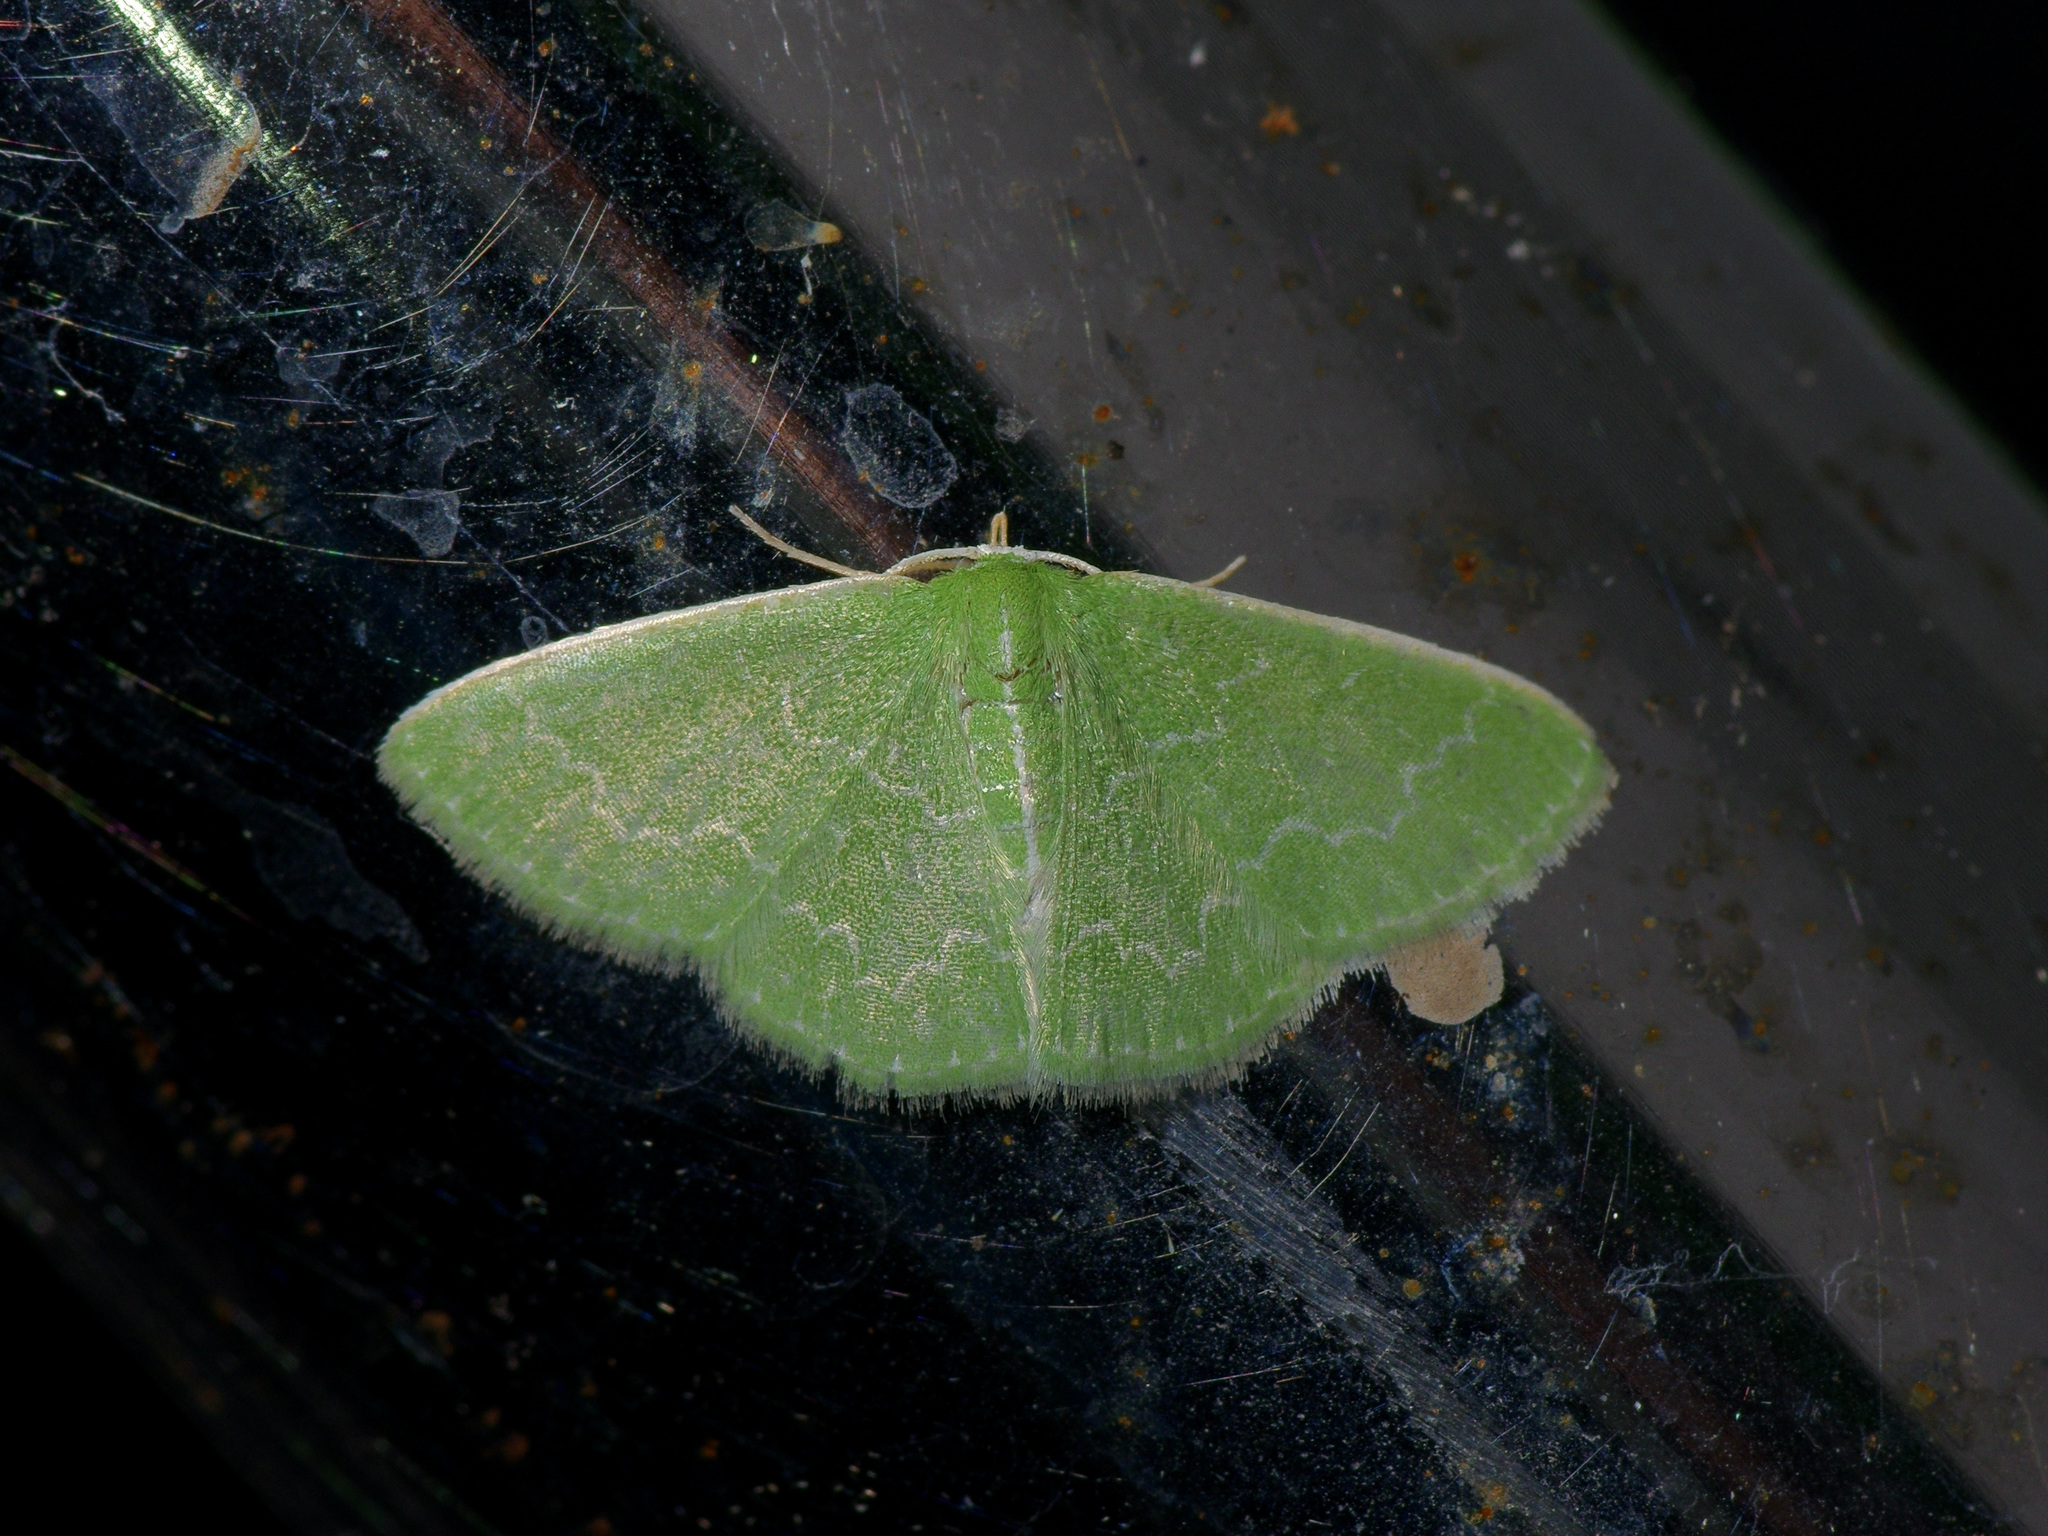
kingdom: Animalia
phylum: Arthropoda
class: Insecta
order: Lepidoptera
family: Geometridae
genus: Synchlora
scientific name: Synchlora frondaria
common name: Southern emerald
